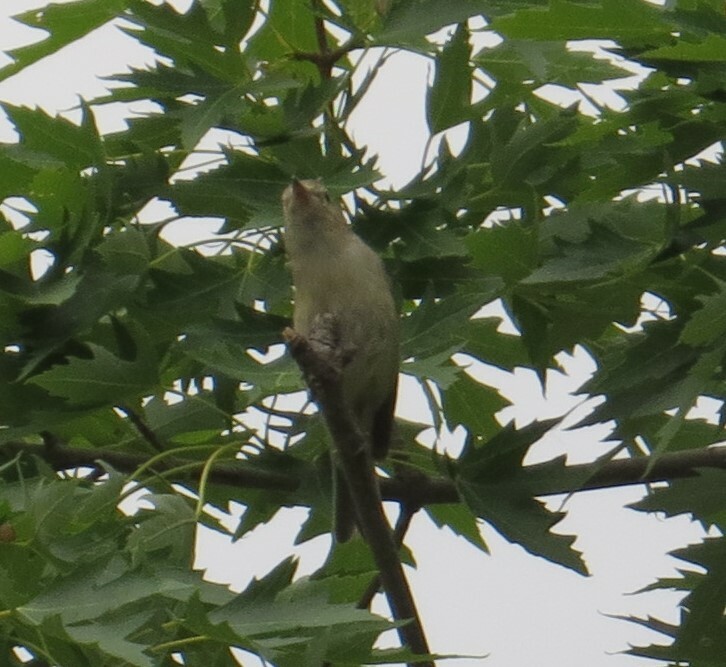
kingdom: Animalia
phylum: Chordata
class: Aves
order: Passeriformes
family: Vireonidae
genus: Vireo
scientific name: Vireo gilvus
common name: Warbling vireo
